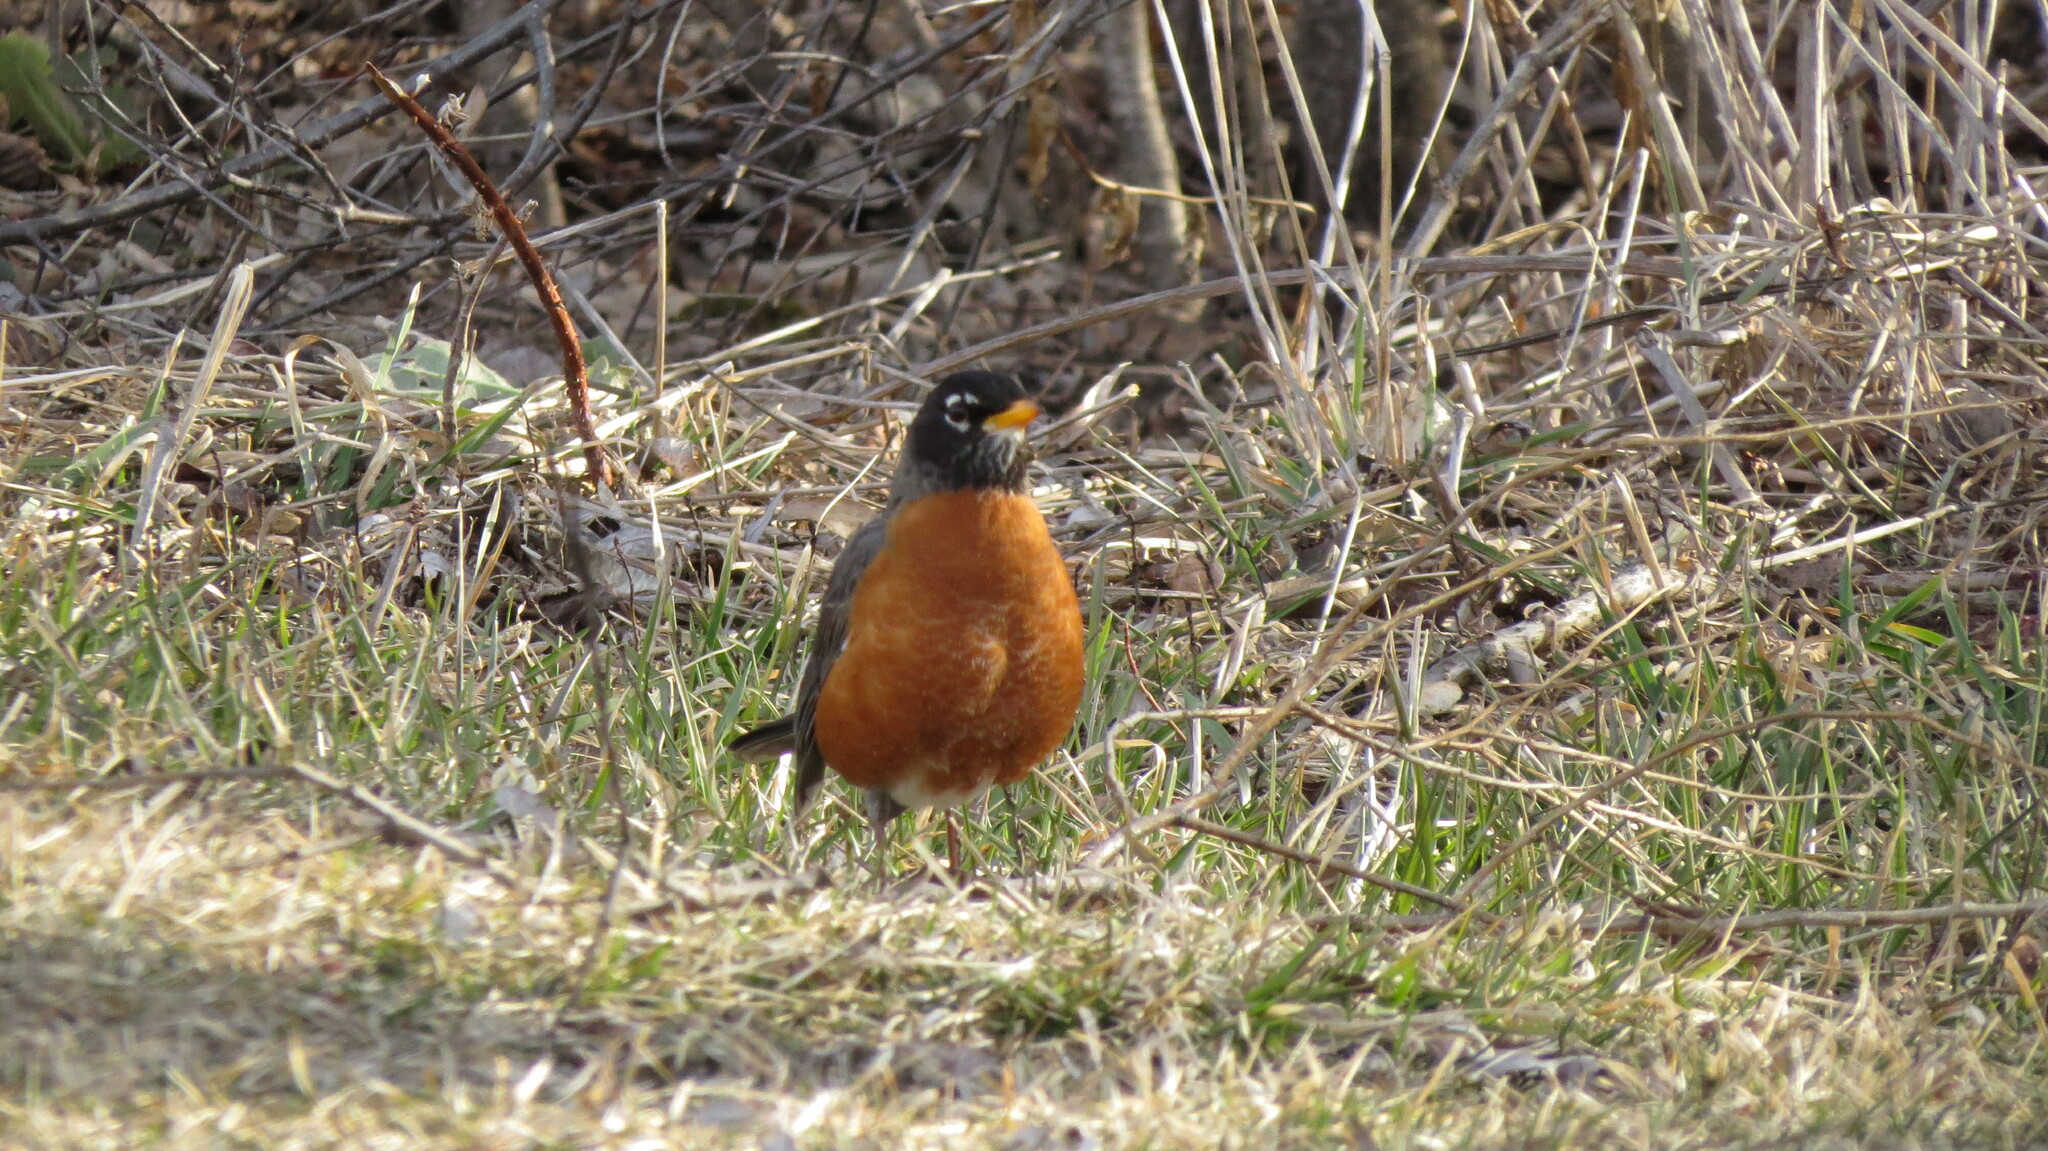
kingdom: Animalia
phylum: Chordata
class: Aves
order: Passeriformes
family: Turdidae
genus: Turdus
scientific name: Turdus migratorius
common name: American robin
